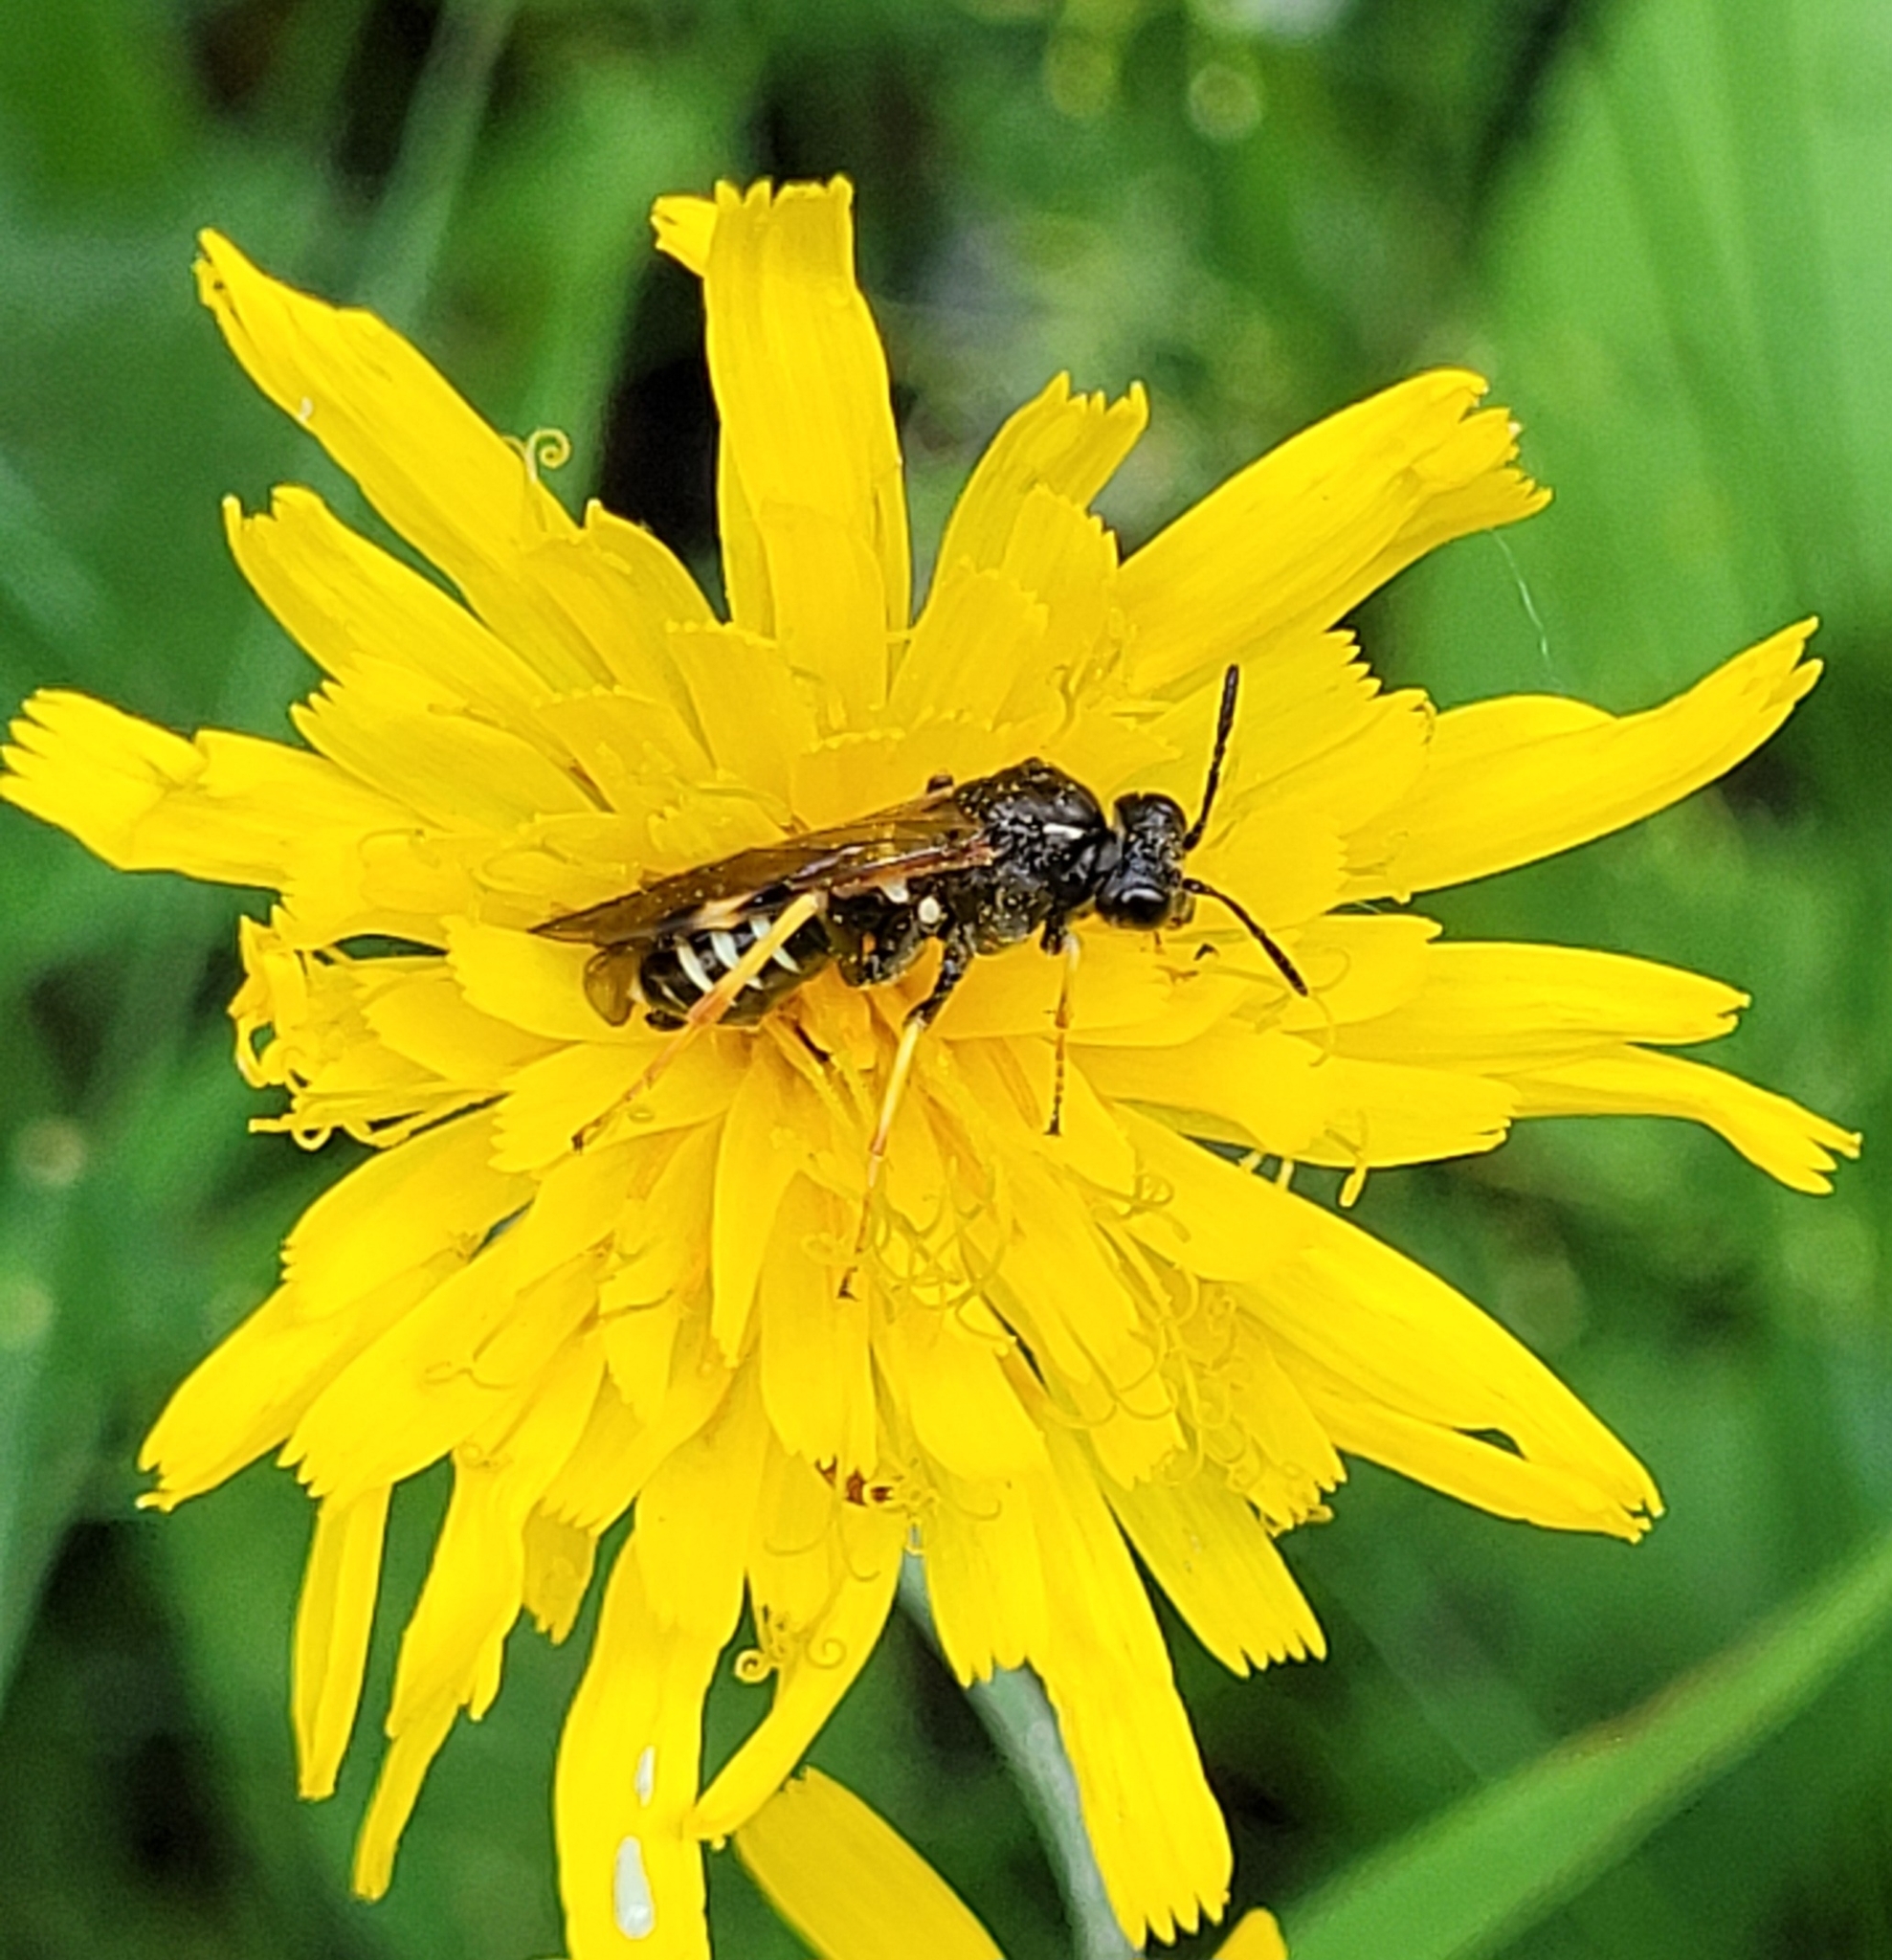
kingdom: Animalia
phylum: Arthropoda
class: Insecta
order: Hymenoptera
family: Tenthredinidae
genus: Tenthredo
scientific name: Tenthredo koehleri
